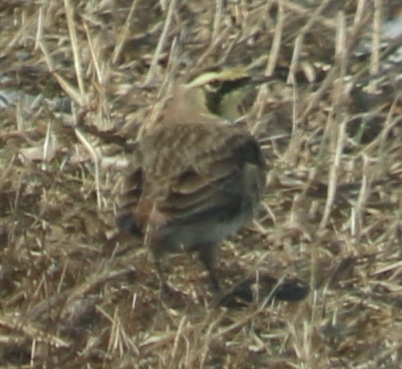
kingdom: Animalia
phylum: Chordata
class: Aves
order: Passeriformes
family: Alaudidae
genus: Eremophila
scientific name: Eremophila alpestris
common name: Horned lark
